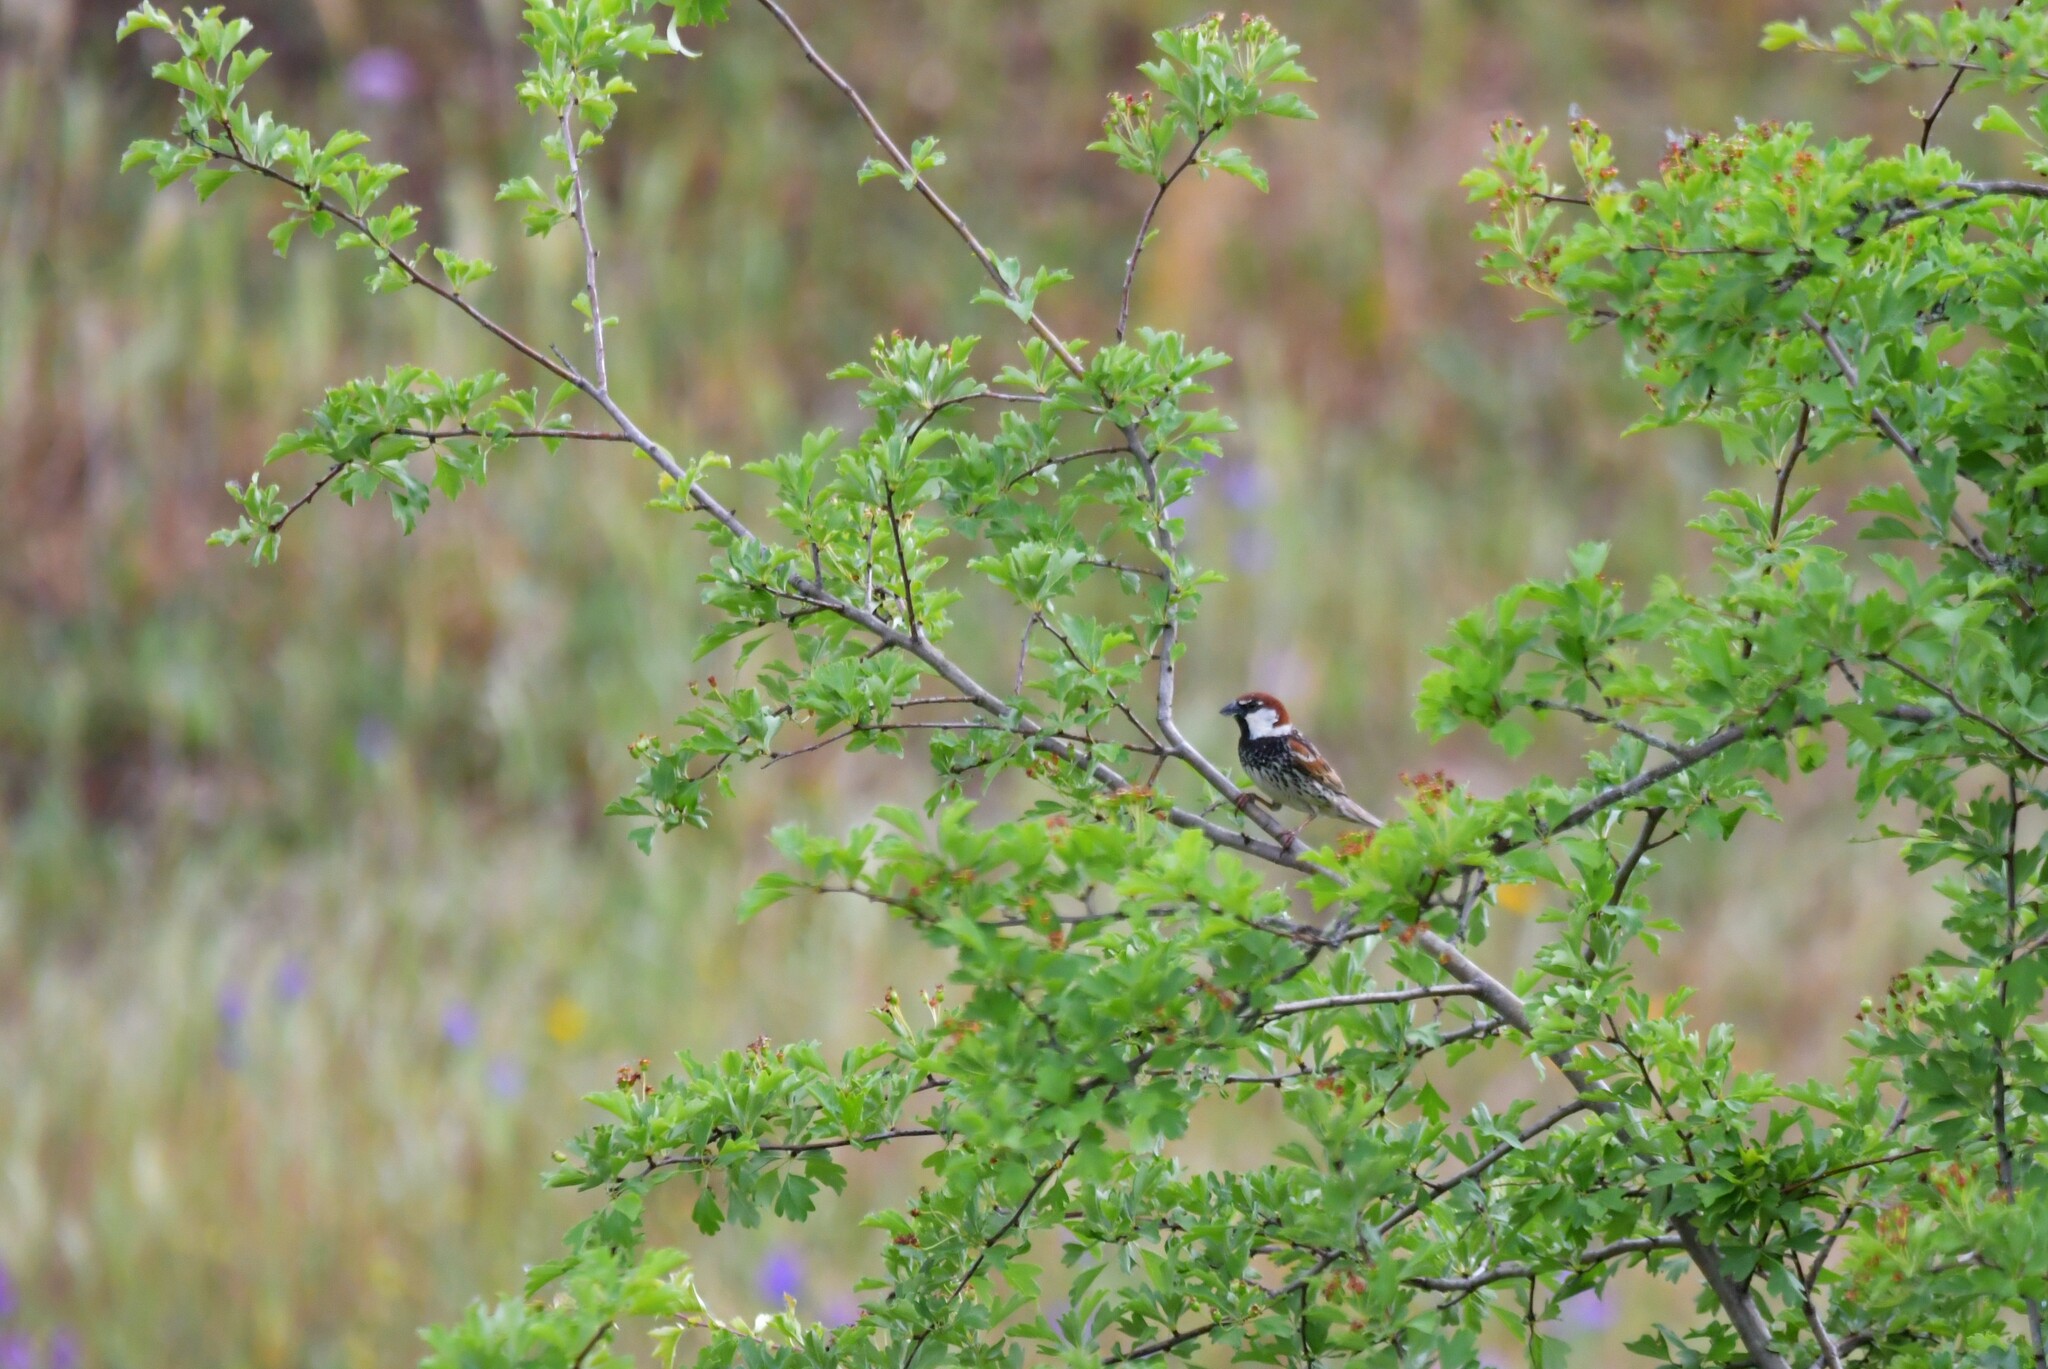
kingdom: Animalia
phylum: Chordata
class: Aves
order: Passeriformes
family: Passeridae
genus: Passer
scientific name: Passer hispaniolensis
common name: Spanish sparrow
